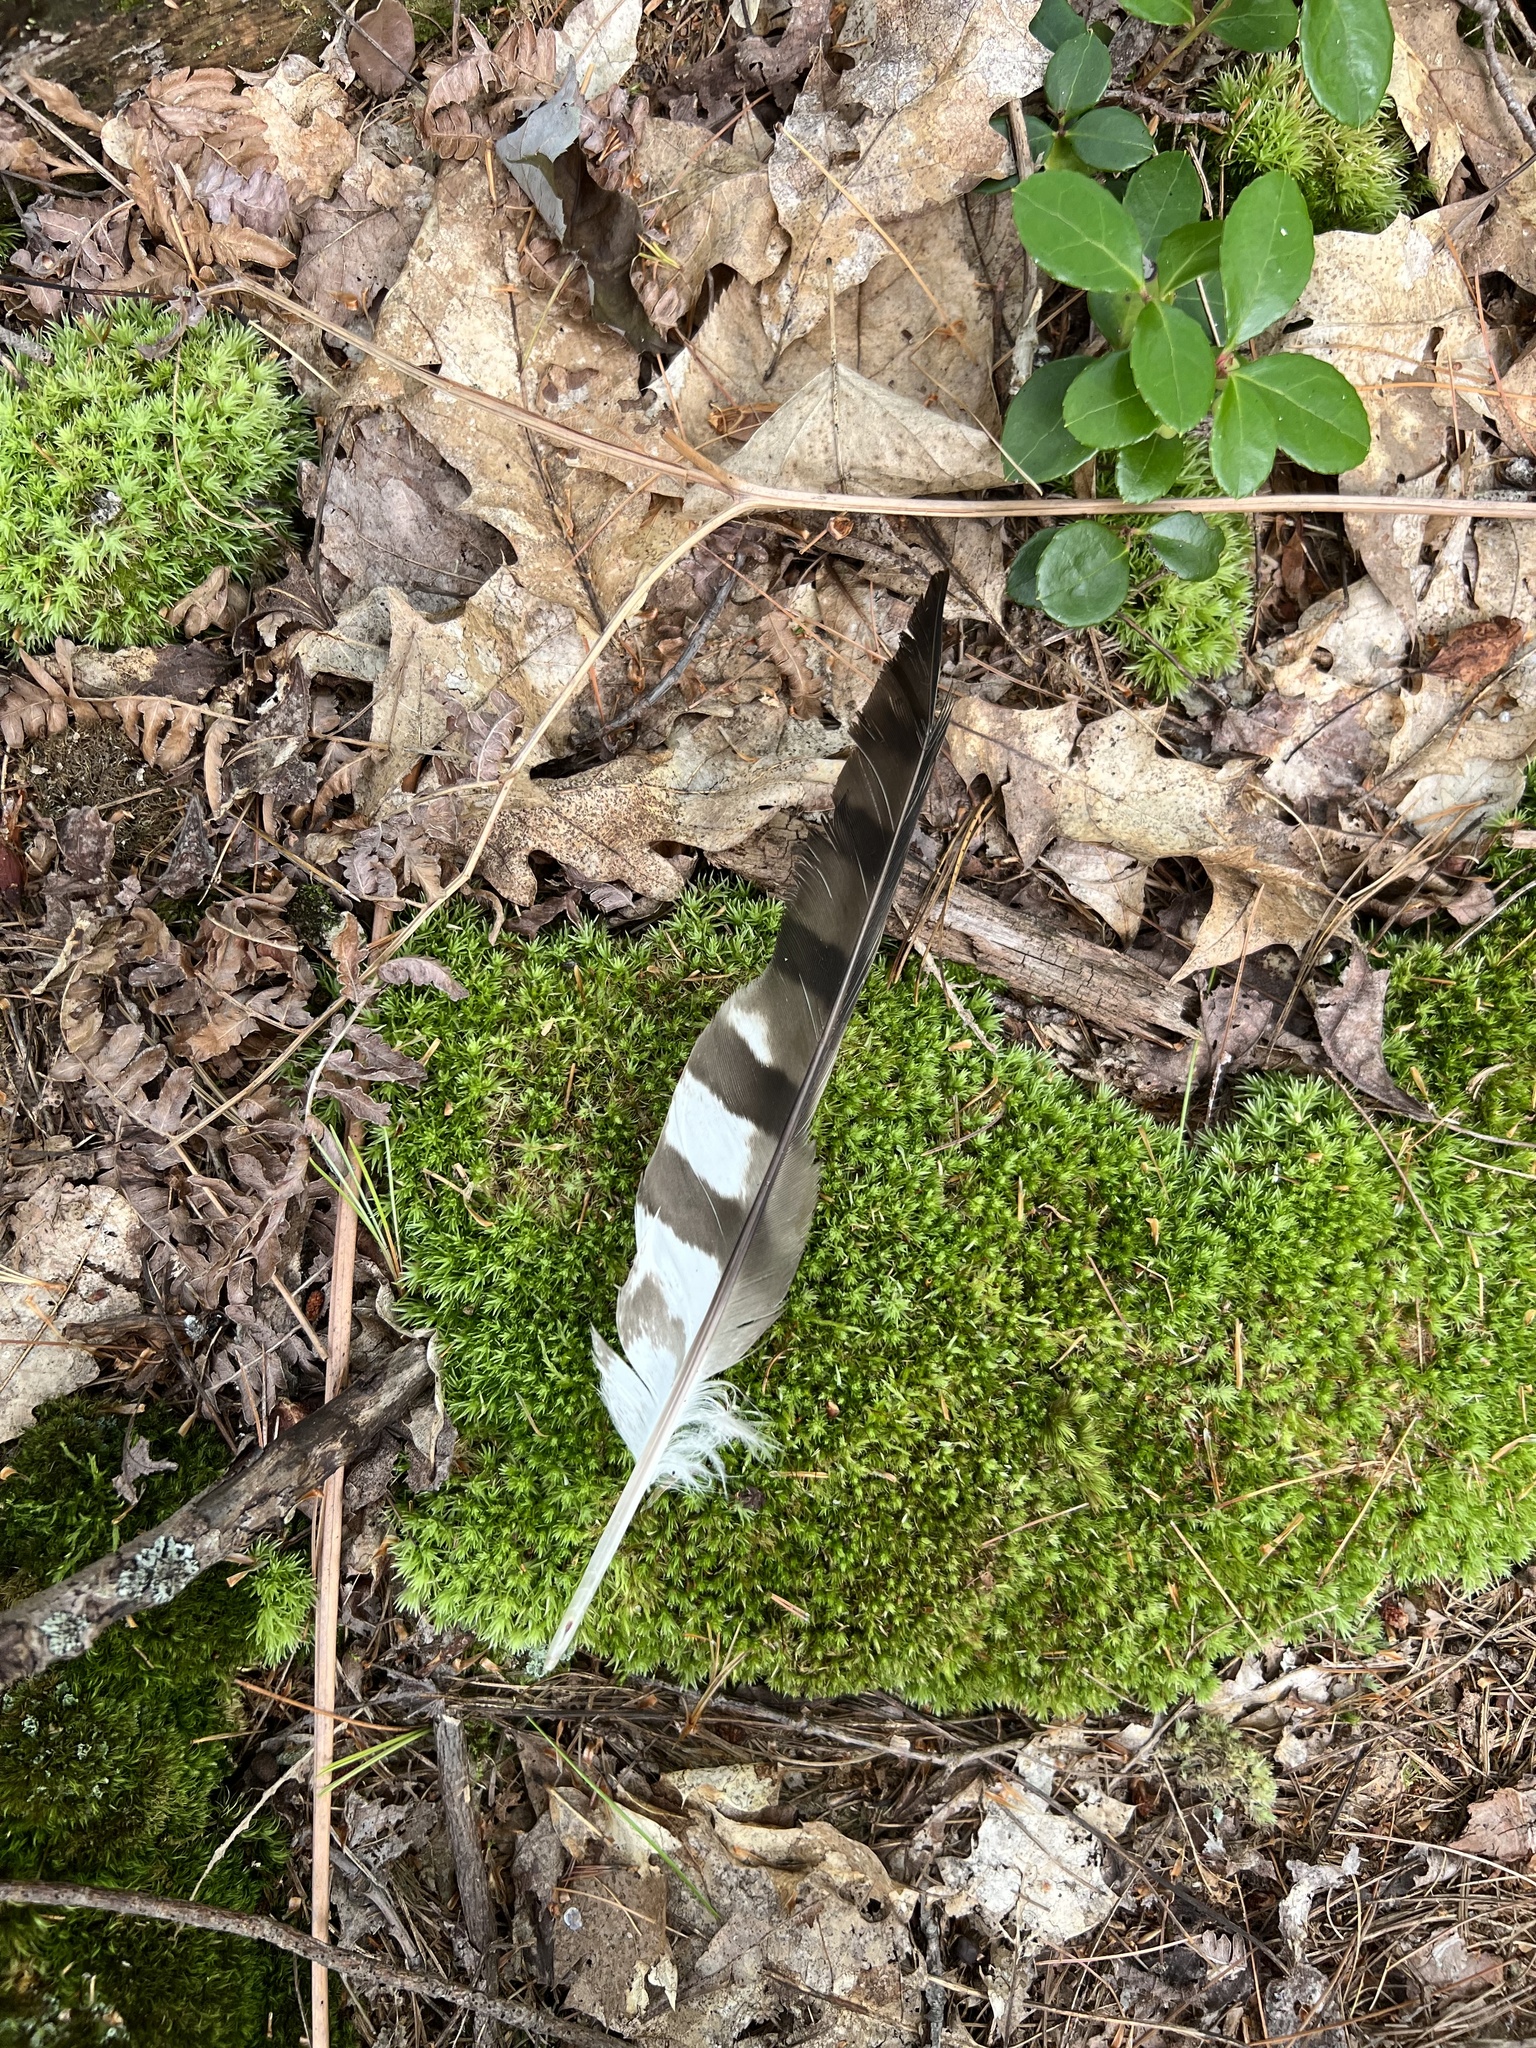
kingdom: Animalia
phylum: Chordata
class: Aves
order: Accipitriformes
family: Accipitridae
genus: Accipiter
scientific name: Accipiter cooperii
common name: Cooper's hawk
